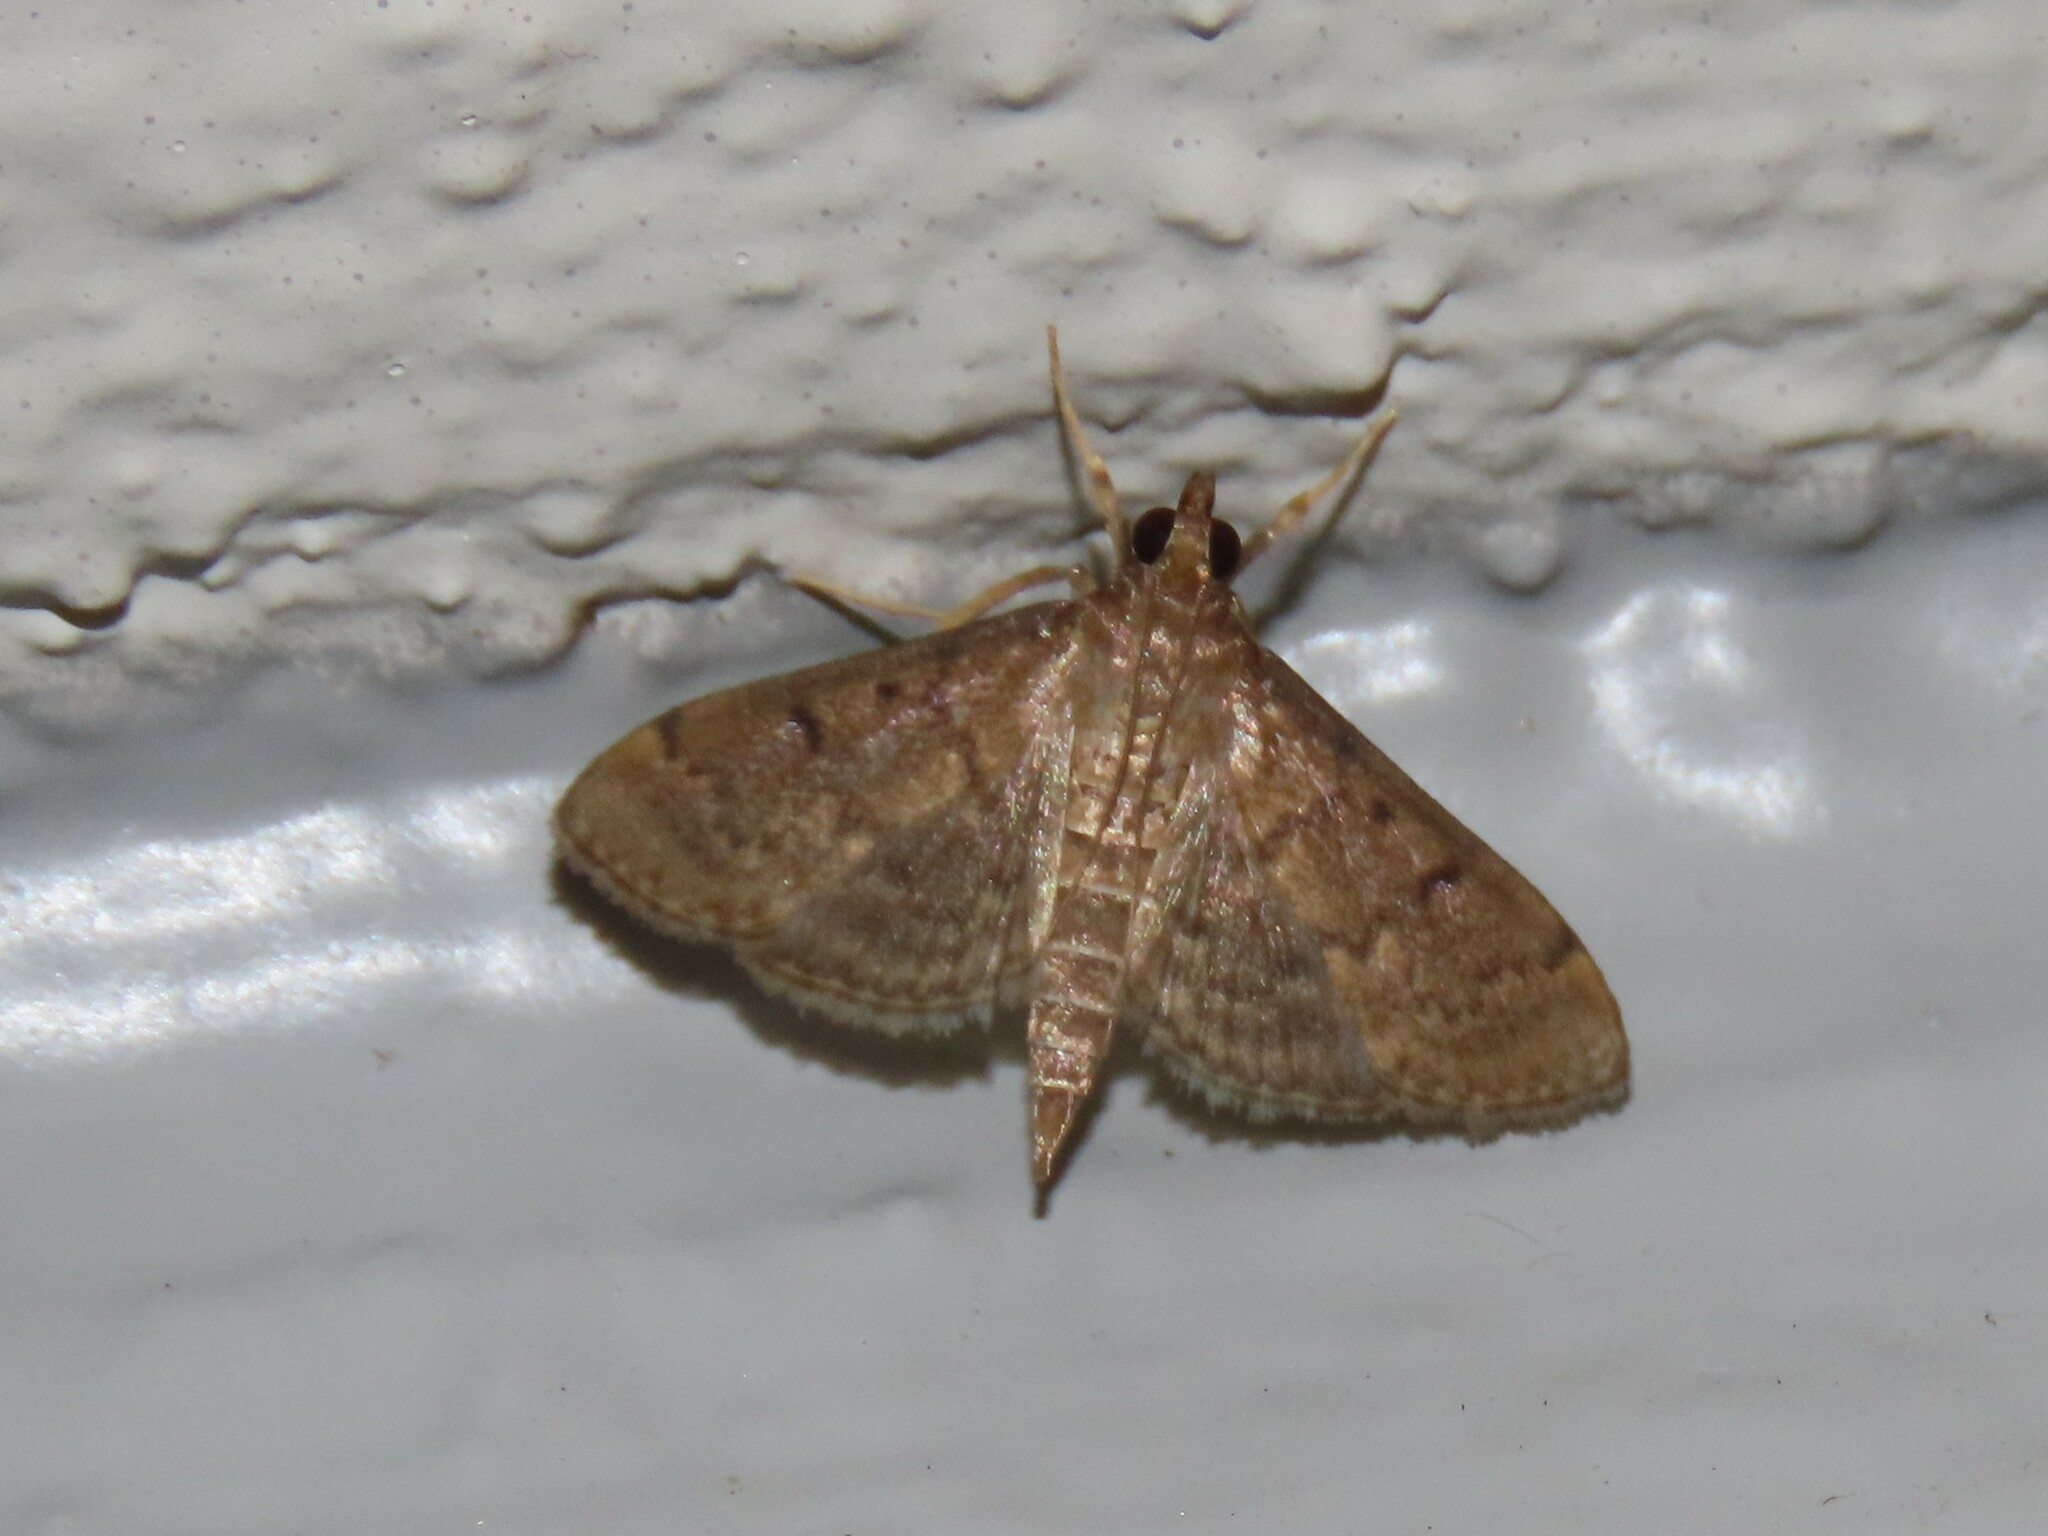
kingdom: Animalia
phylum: Arthropoda
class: Insecta
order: Lepidoptera
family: Crambidae
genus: Herpetogramma
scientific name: Herpetogramma phaeopteralis
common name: Dusky herpetogramma moth
